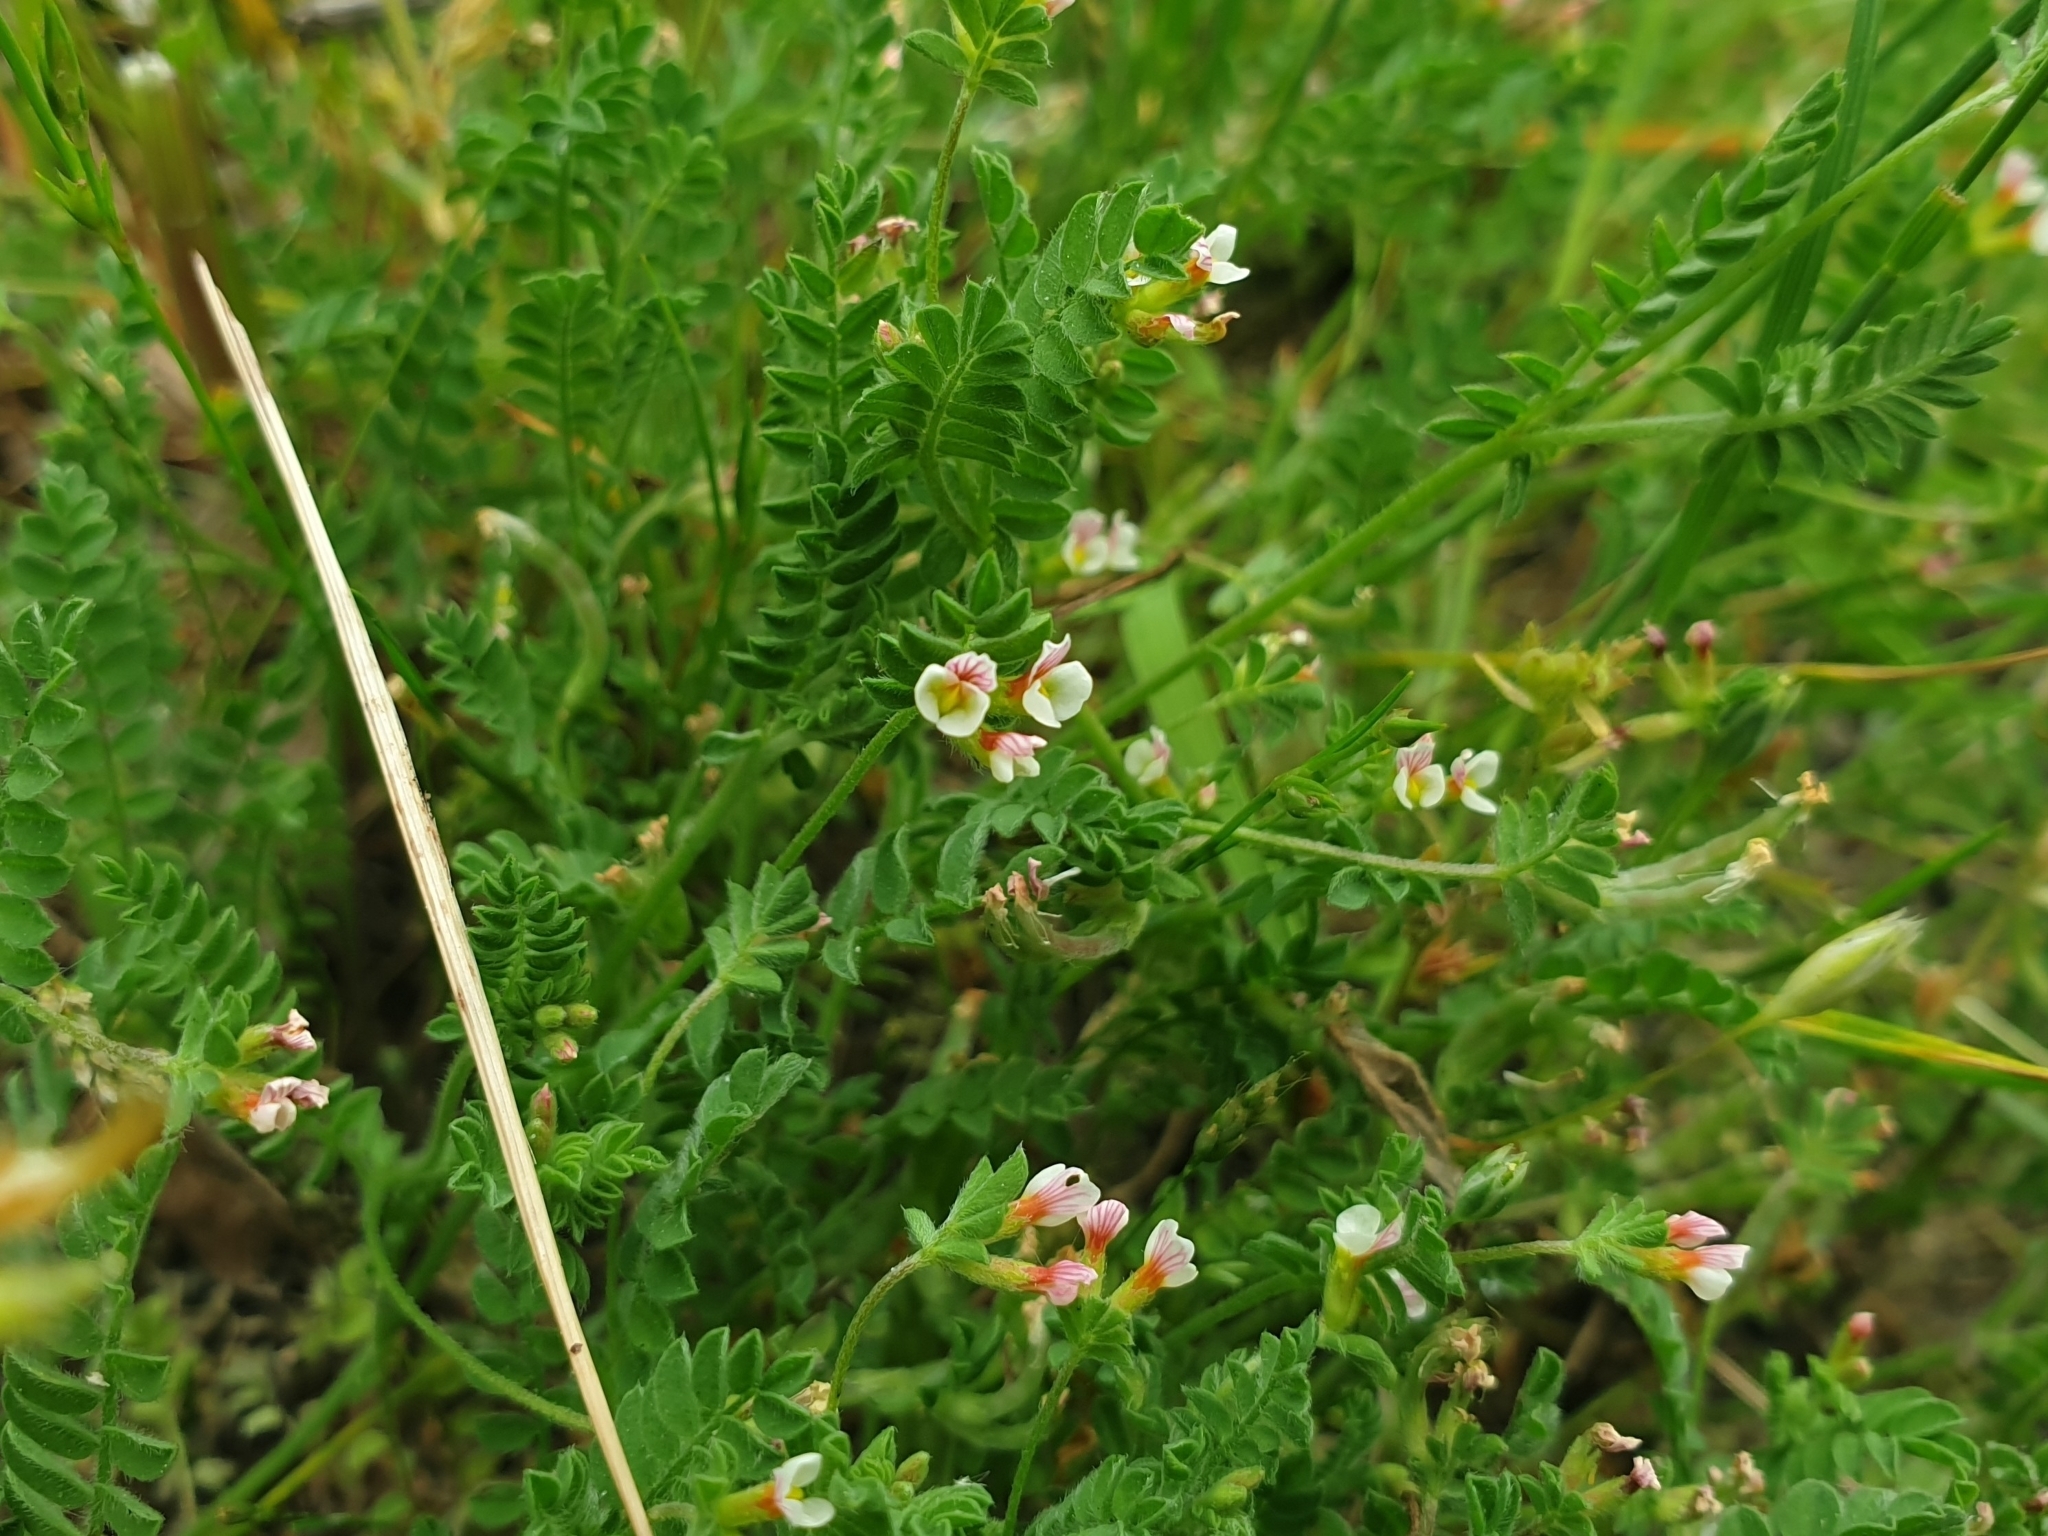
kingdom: Plantae
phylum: Tracheophyta
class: Magnoliopsida
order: Fabales
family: Fabaceae
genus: Ornithopus
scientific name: Ornithopus perpusillus
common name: Bird's-foot
